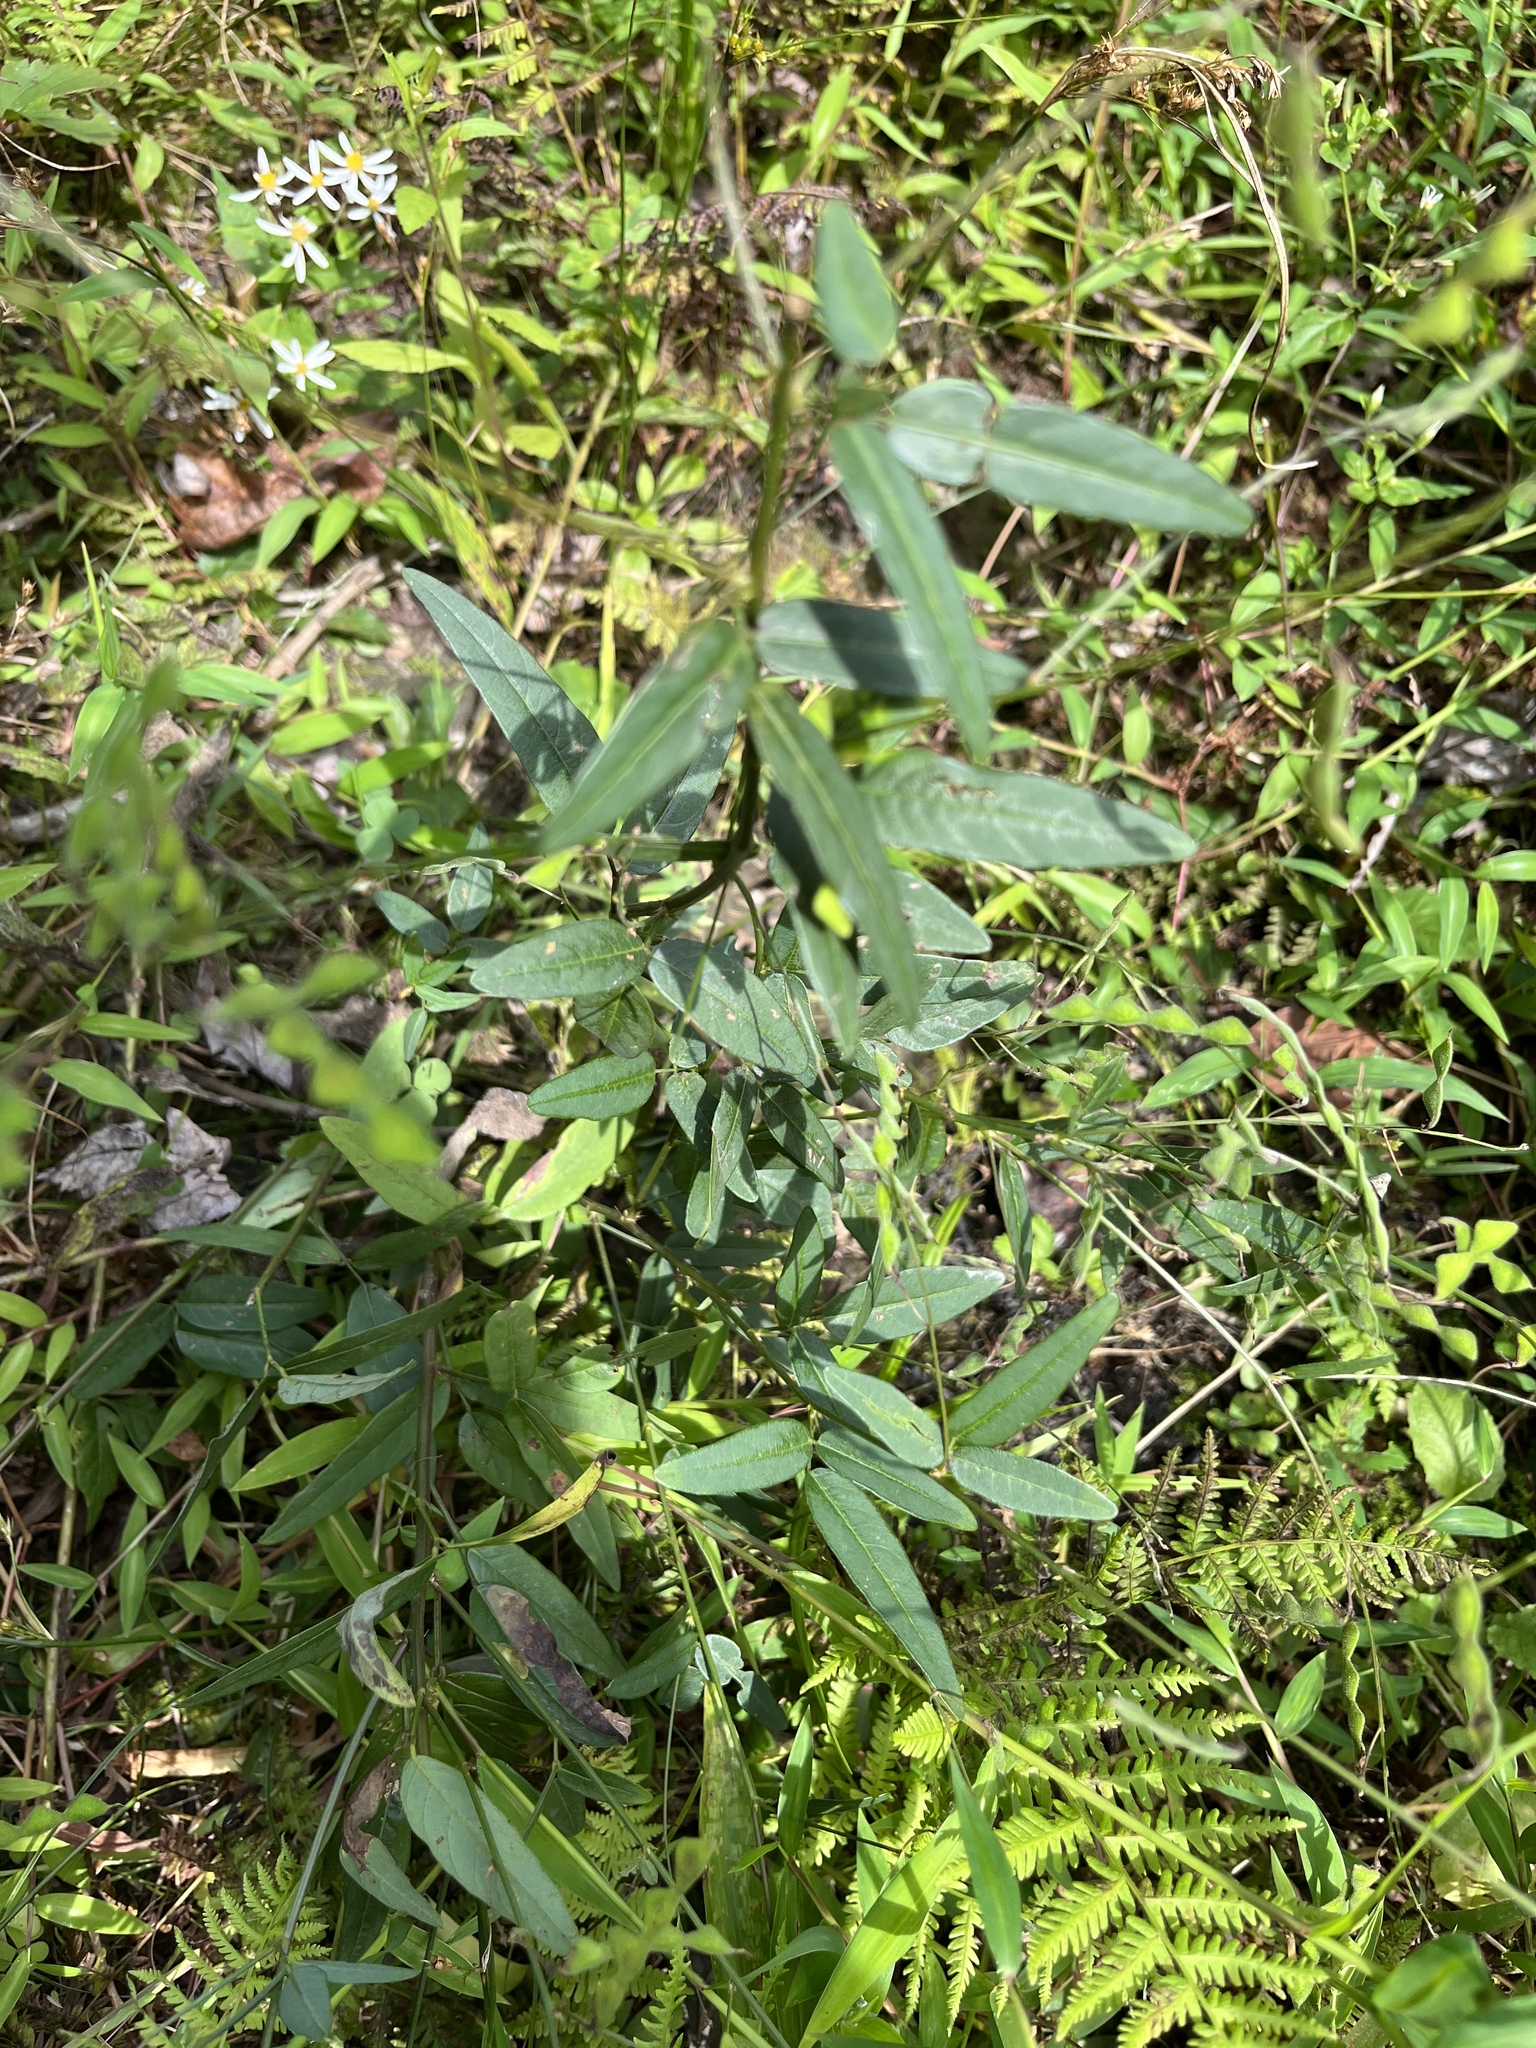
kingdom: Plantae
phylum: Tracheophyta
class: Magnoliopsida
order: Fabales
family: Fabaceae
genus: Desmodium
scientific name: Desmodium paniculatum
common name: Panicled tick-clover
